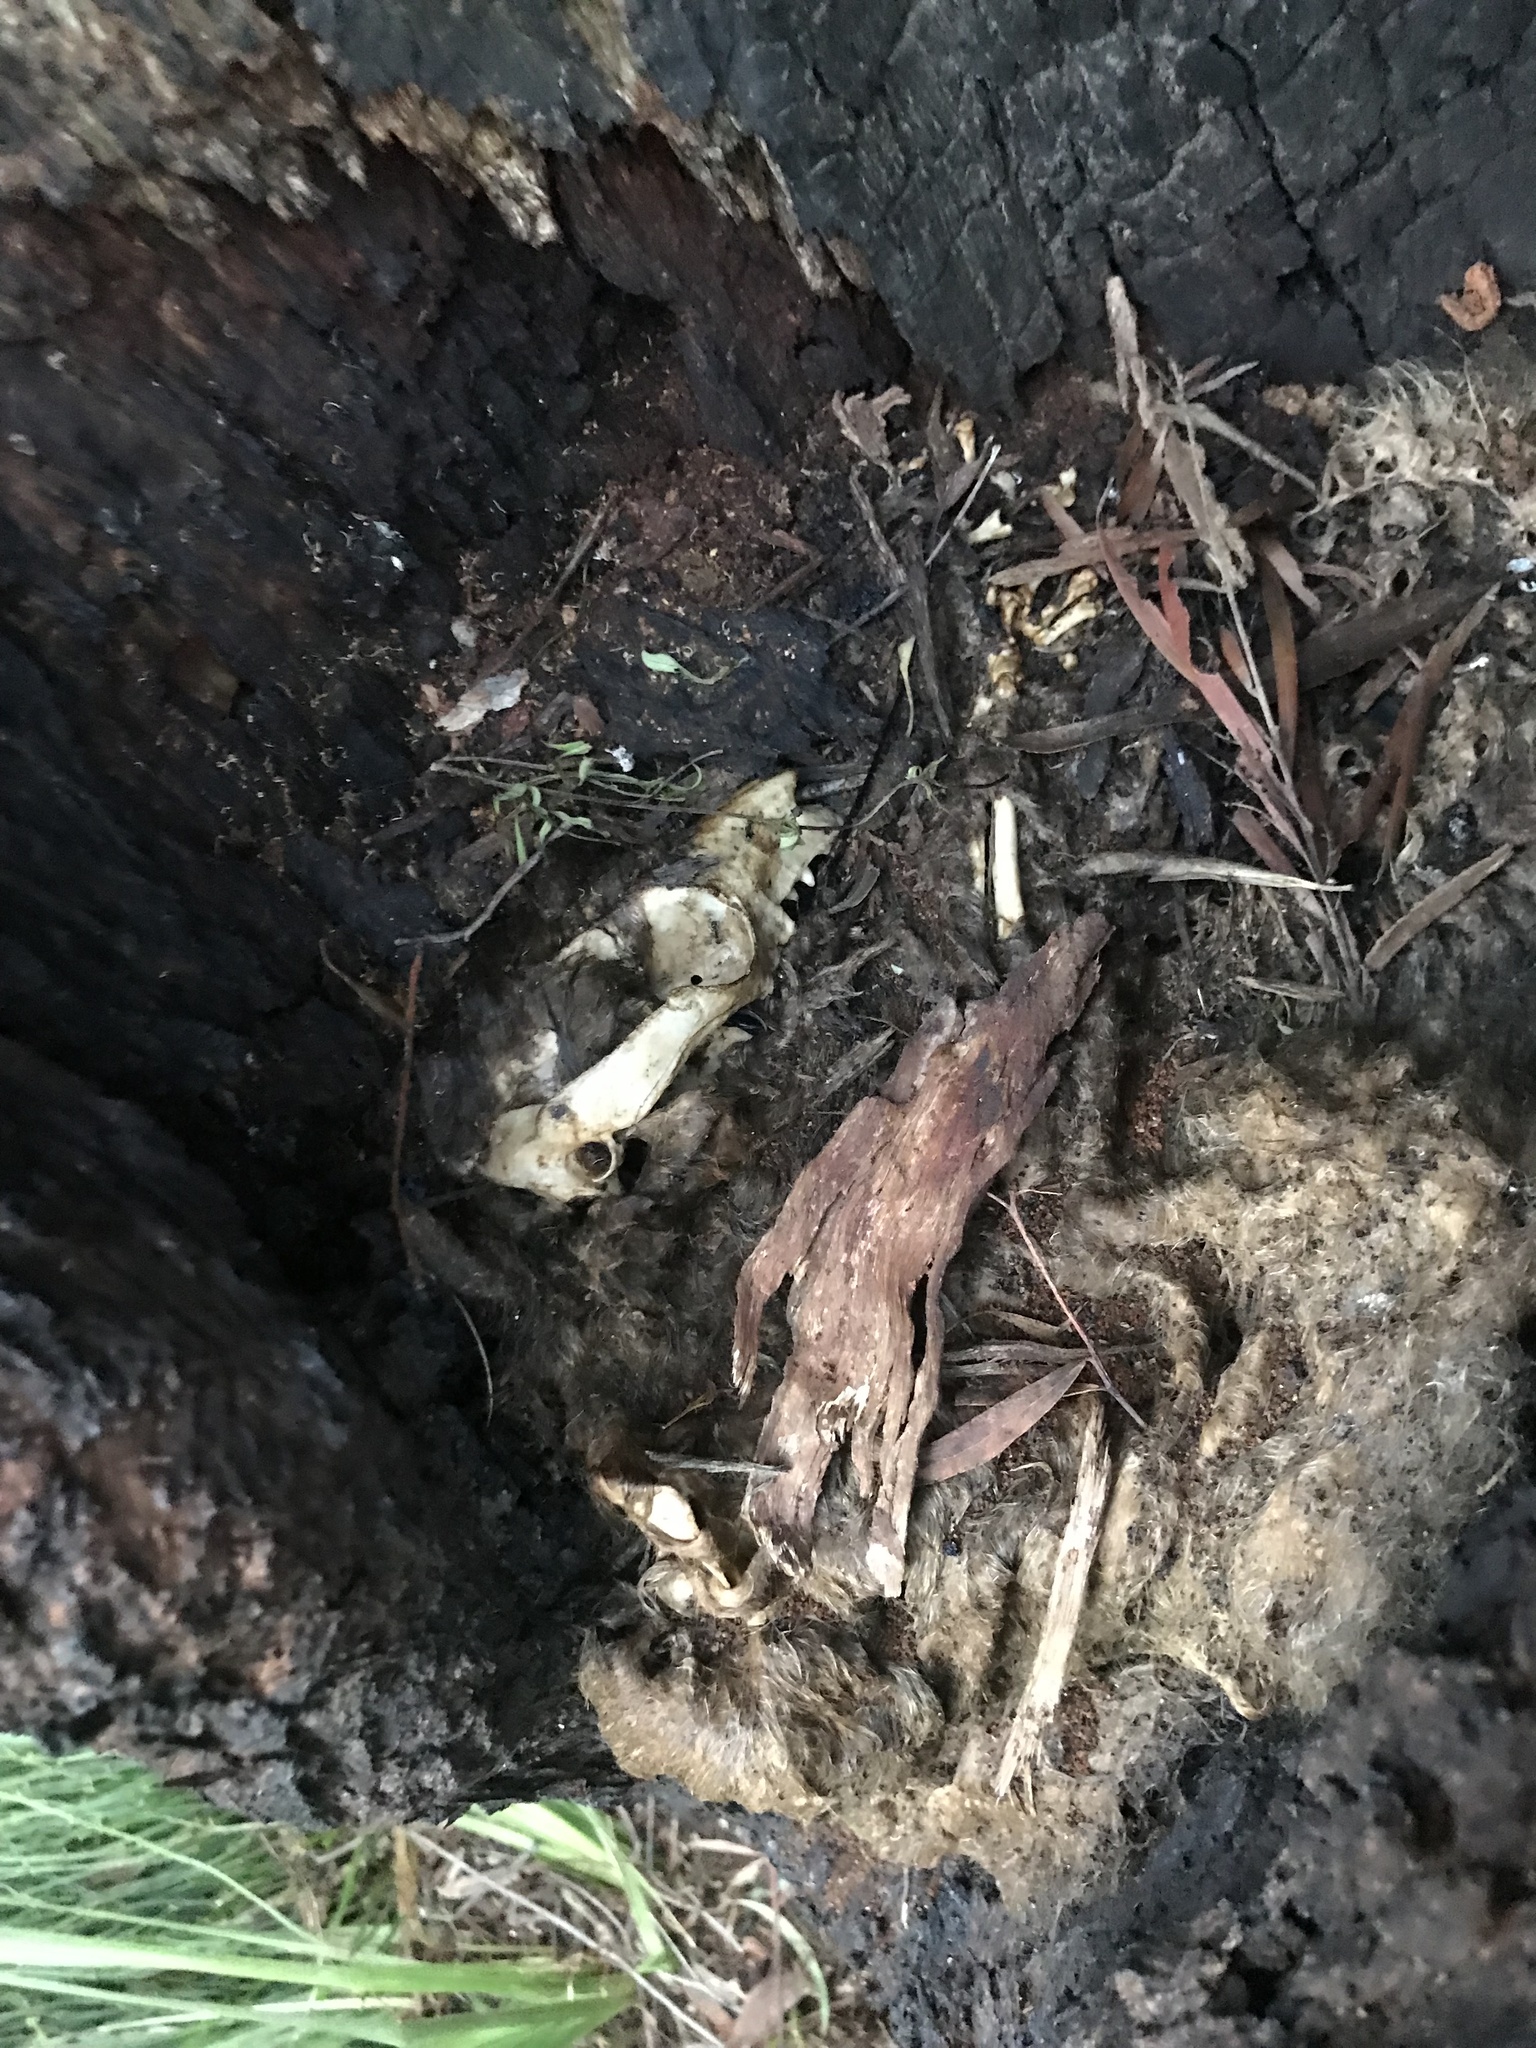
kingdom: Animalia
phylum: Chordata
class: Mammalia
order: Diprotodontia
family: Phalangeridae
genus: Trichosurus
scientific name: Trichosurus vulpecula
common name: Common brushtail
